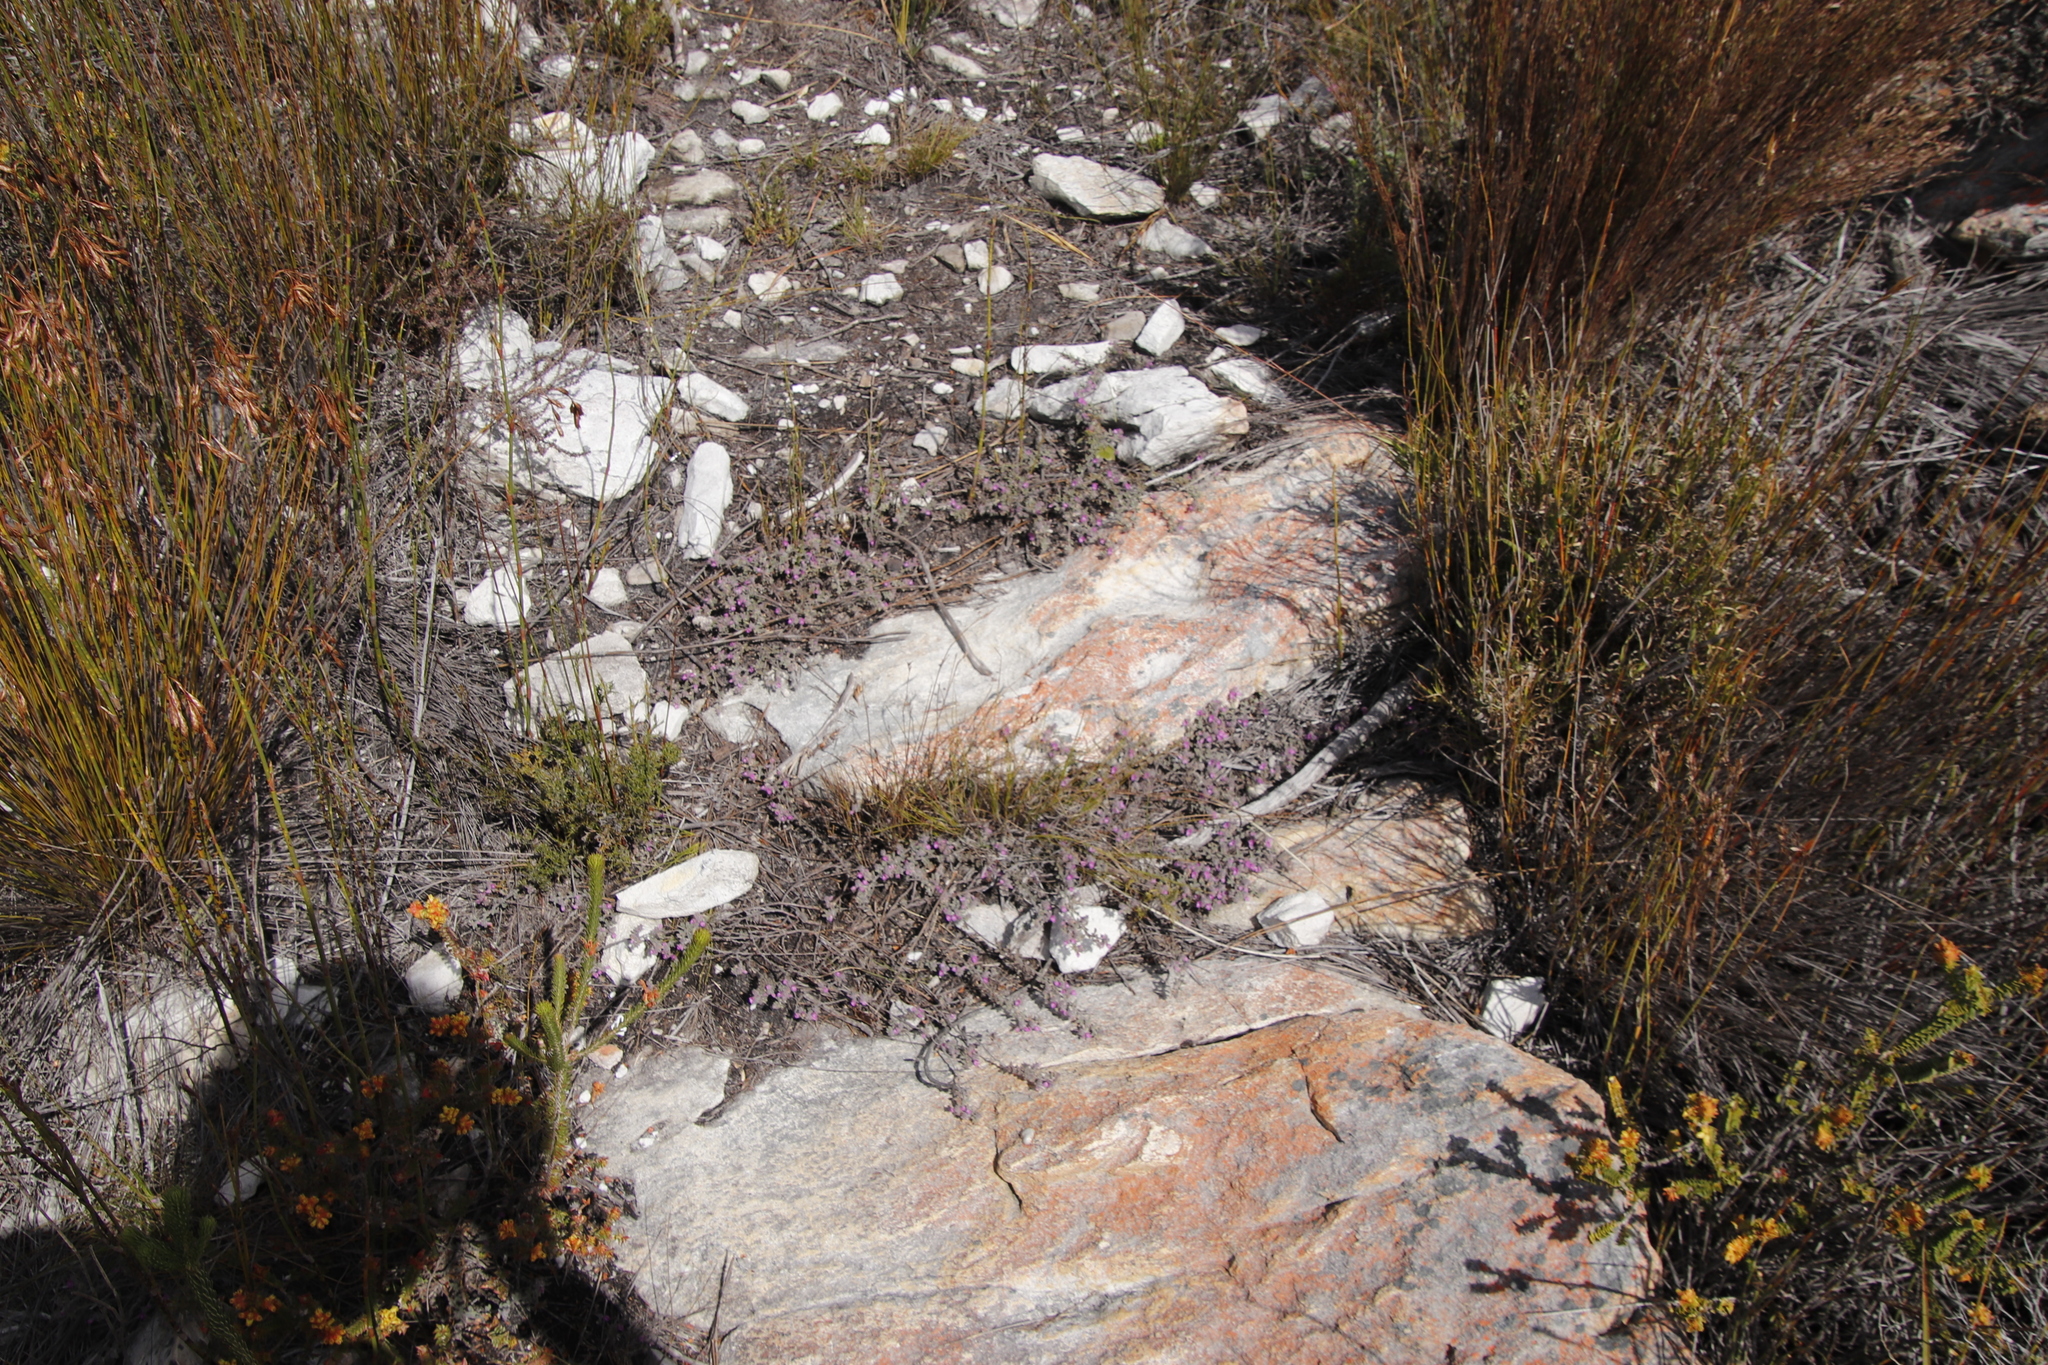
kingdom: Plantae
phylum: Tracheophyta
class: Magnoliopsida
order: Fabales
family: Fabaceae
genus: Indigofera
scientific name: Indigofera
